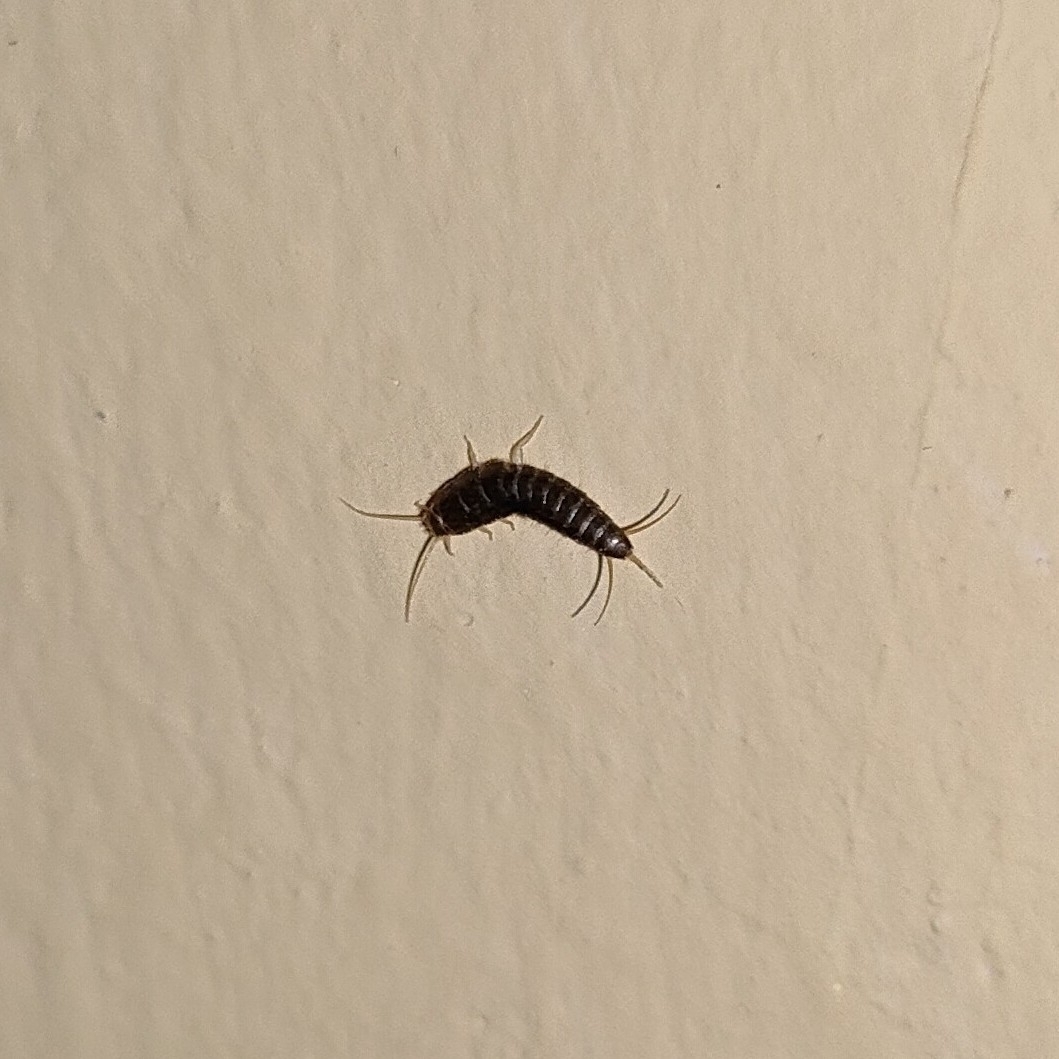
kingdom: Animalia
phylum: Arthropoda
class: Insecta
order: Zygentoma
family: Lepismatidae
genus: Lepisma
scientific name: Lepisma saccharinum
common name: Silverfish
